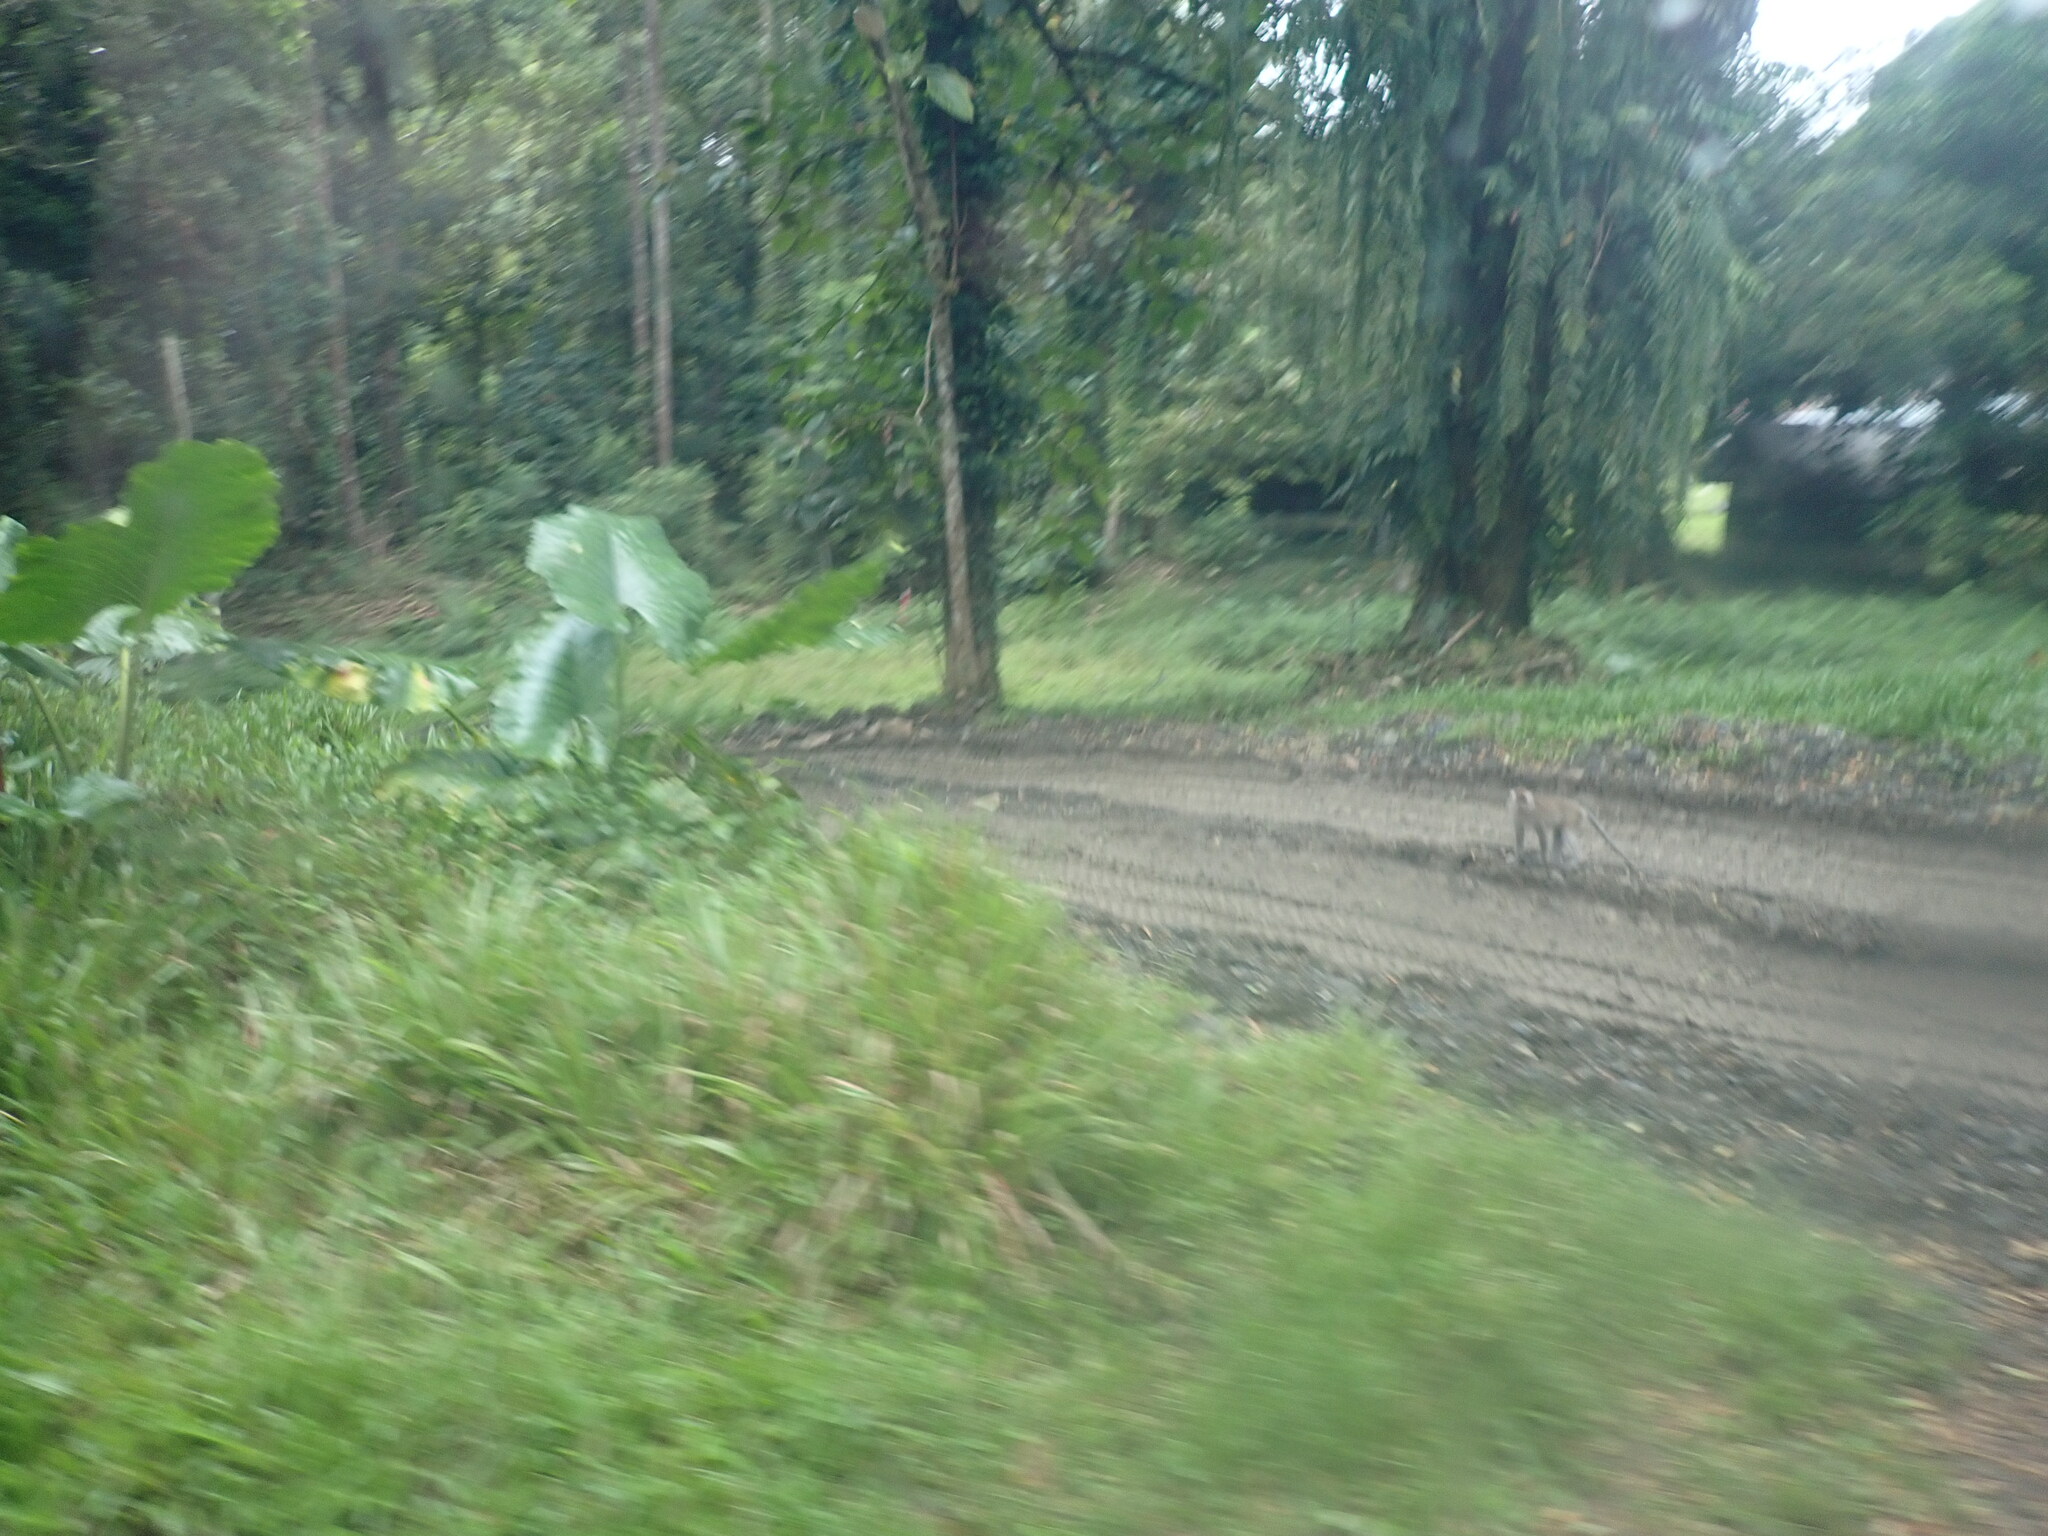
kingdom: Animalia
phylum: Chordata
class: Mammalia
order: Primates
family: Cercopithecidae
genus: Macaca
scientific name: Macaca fascicularis
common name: Crab-eating macaque
